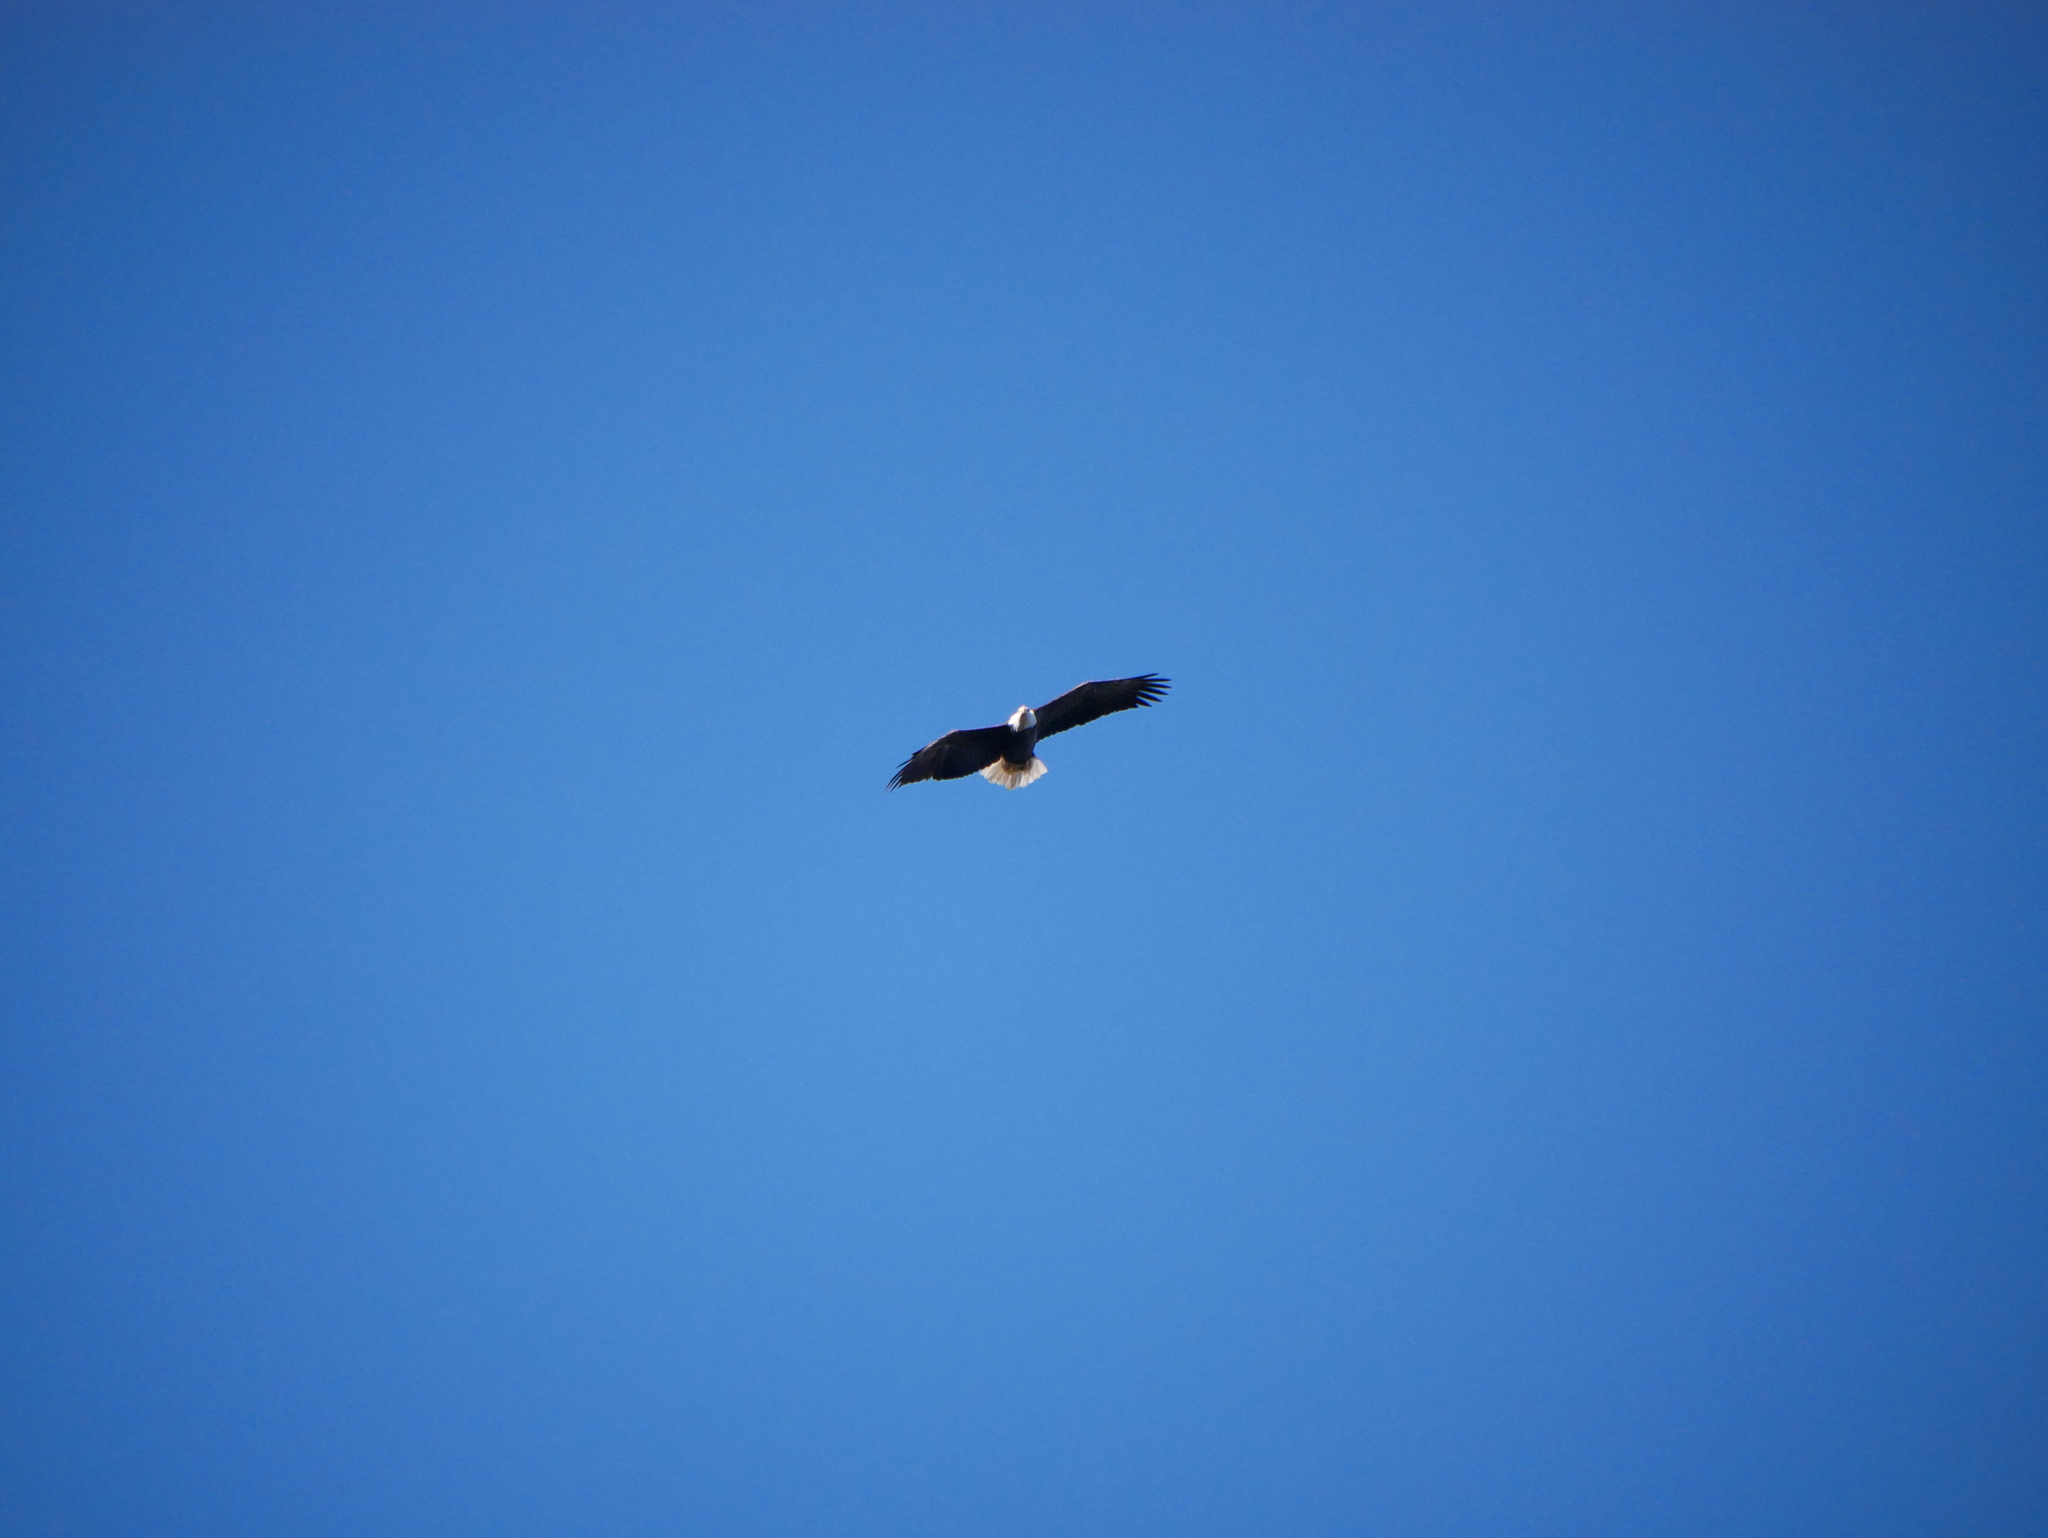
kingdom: Animalia
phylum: Chordata
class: Aves
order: Accipitriformes
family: Accipitridae
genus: Haliaeetus
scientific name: Haliaeetus leucocephalus
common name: Bald eagle
